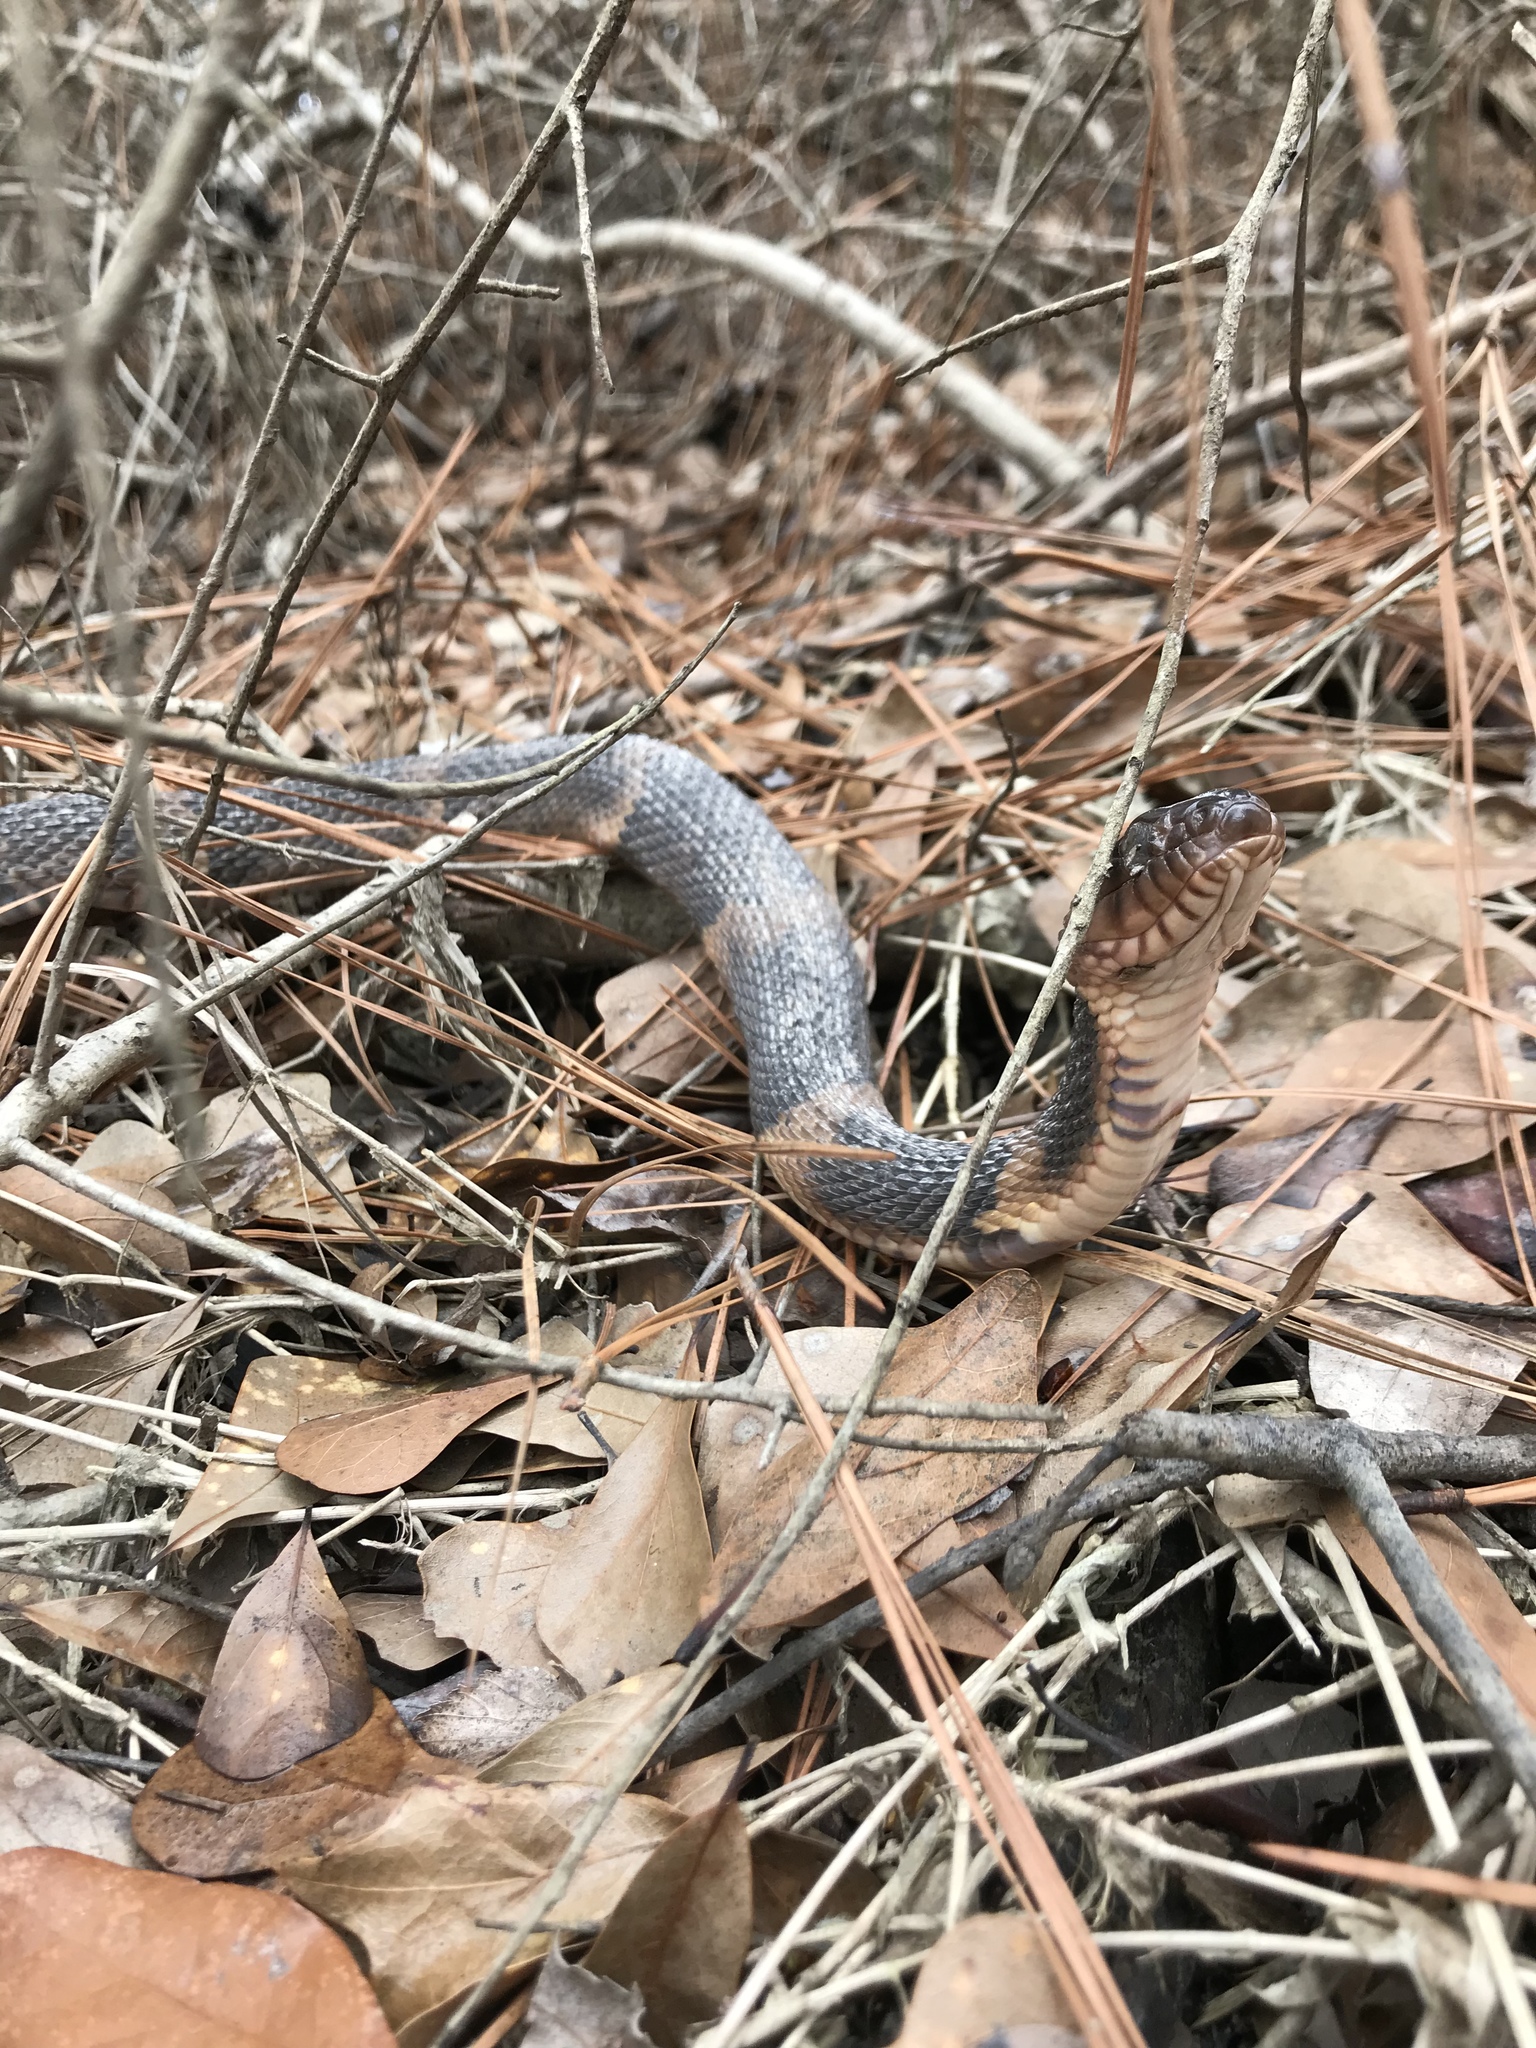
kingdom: Animalia
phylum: Chordata
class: Squamata
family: Colubridae
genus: Nerodia
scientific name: Nerodia fasciata
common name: Southern water snake
